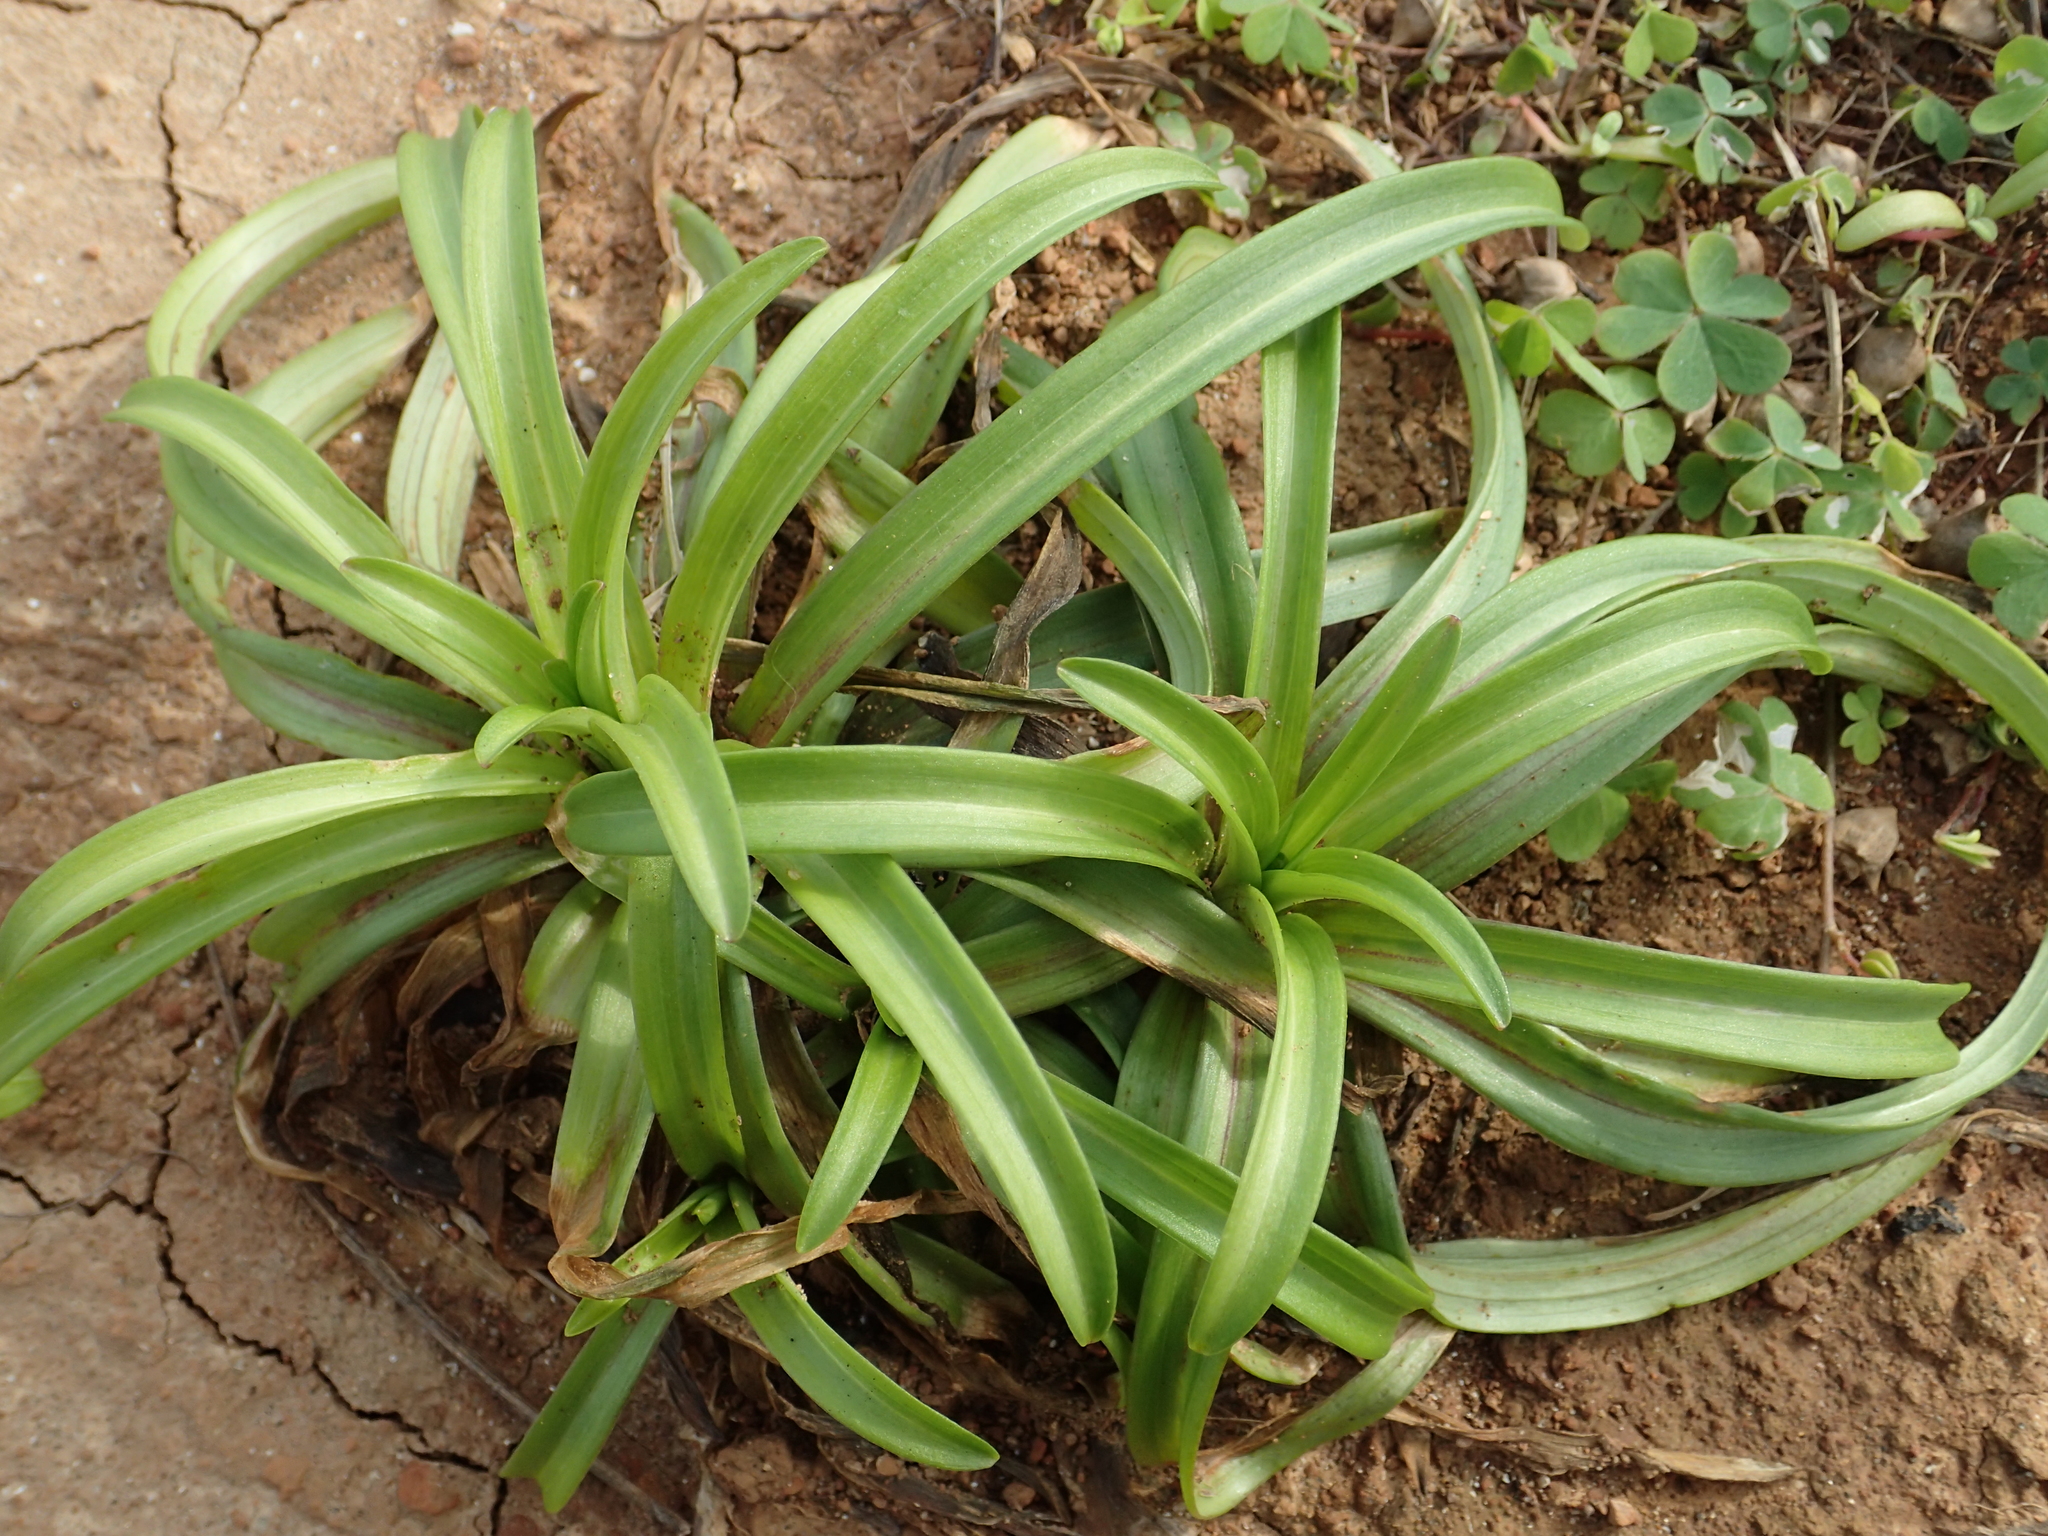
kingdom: Plantae
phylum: Tracheophyta
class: Liliopsida
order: Liliales
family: Liliaceae
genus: Lilium
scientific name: Lilium longiflorum
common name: Easter lily
